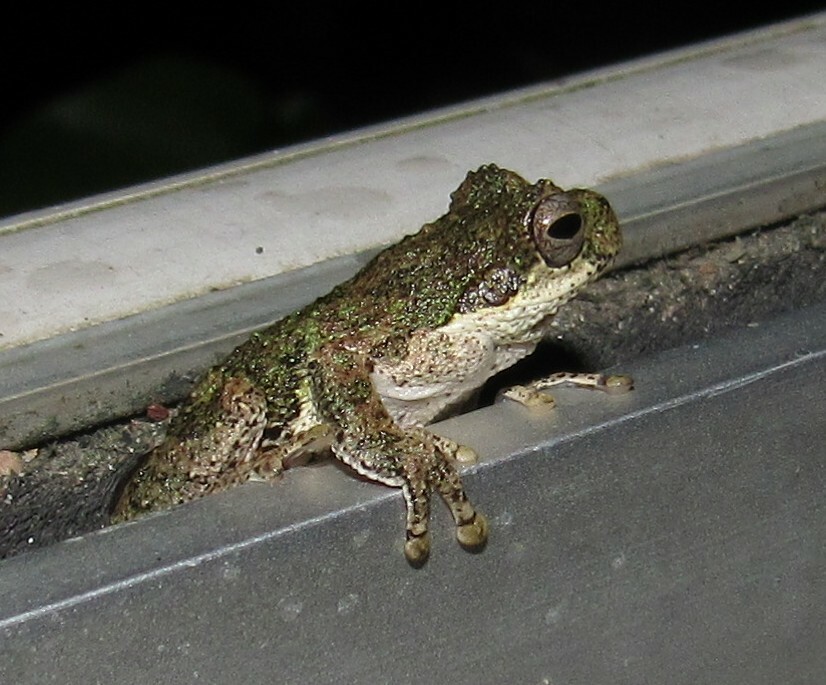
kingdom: Animalia
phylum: Chordata
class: Amphibia
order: Anura
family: Hylidae
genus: Dendropsophus
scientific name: Dendropsophus microps
